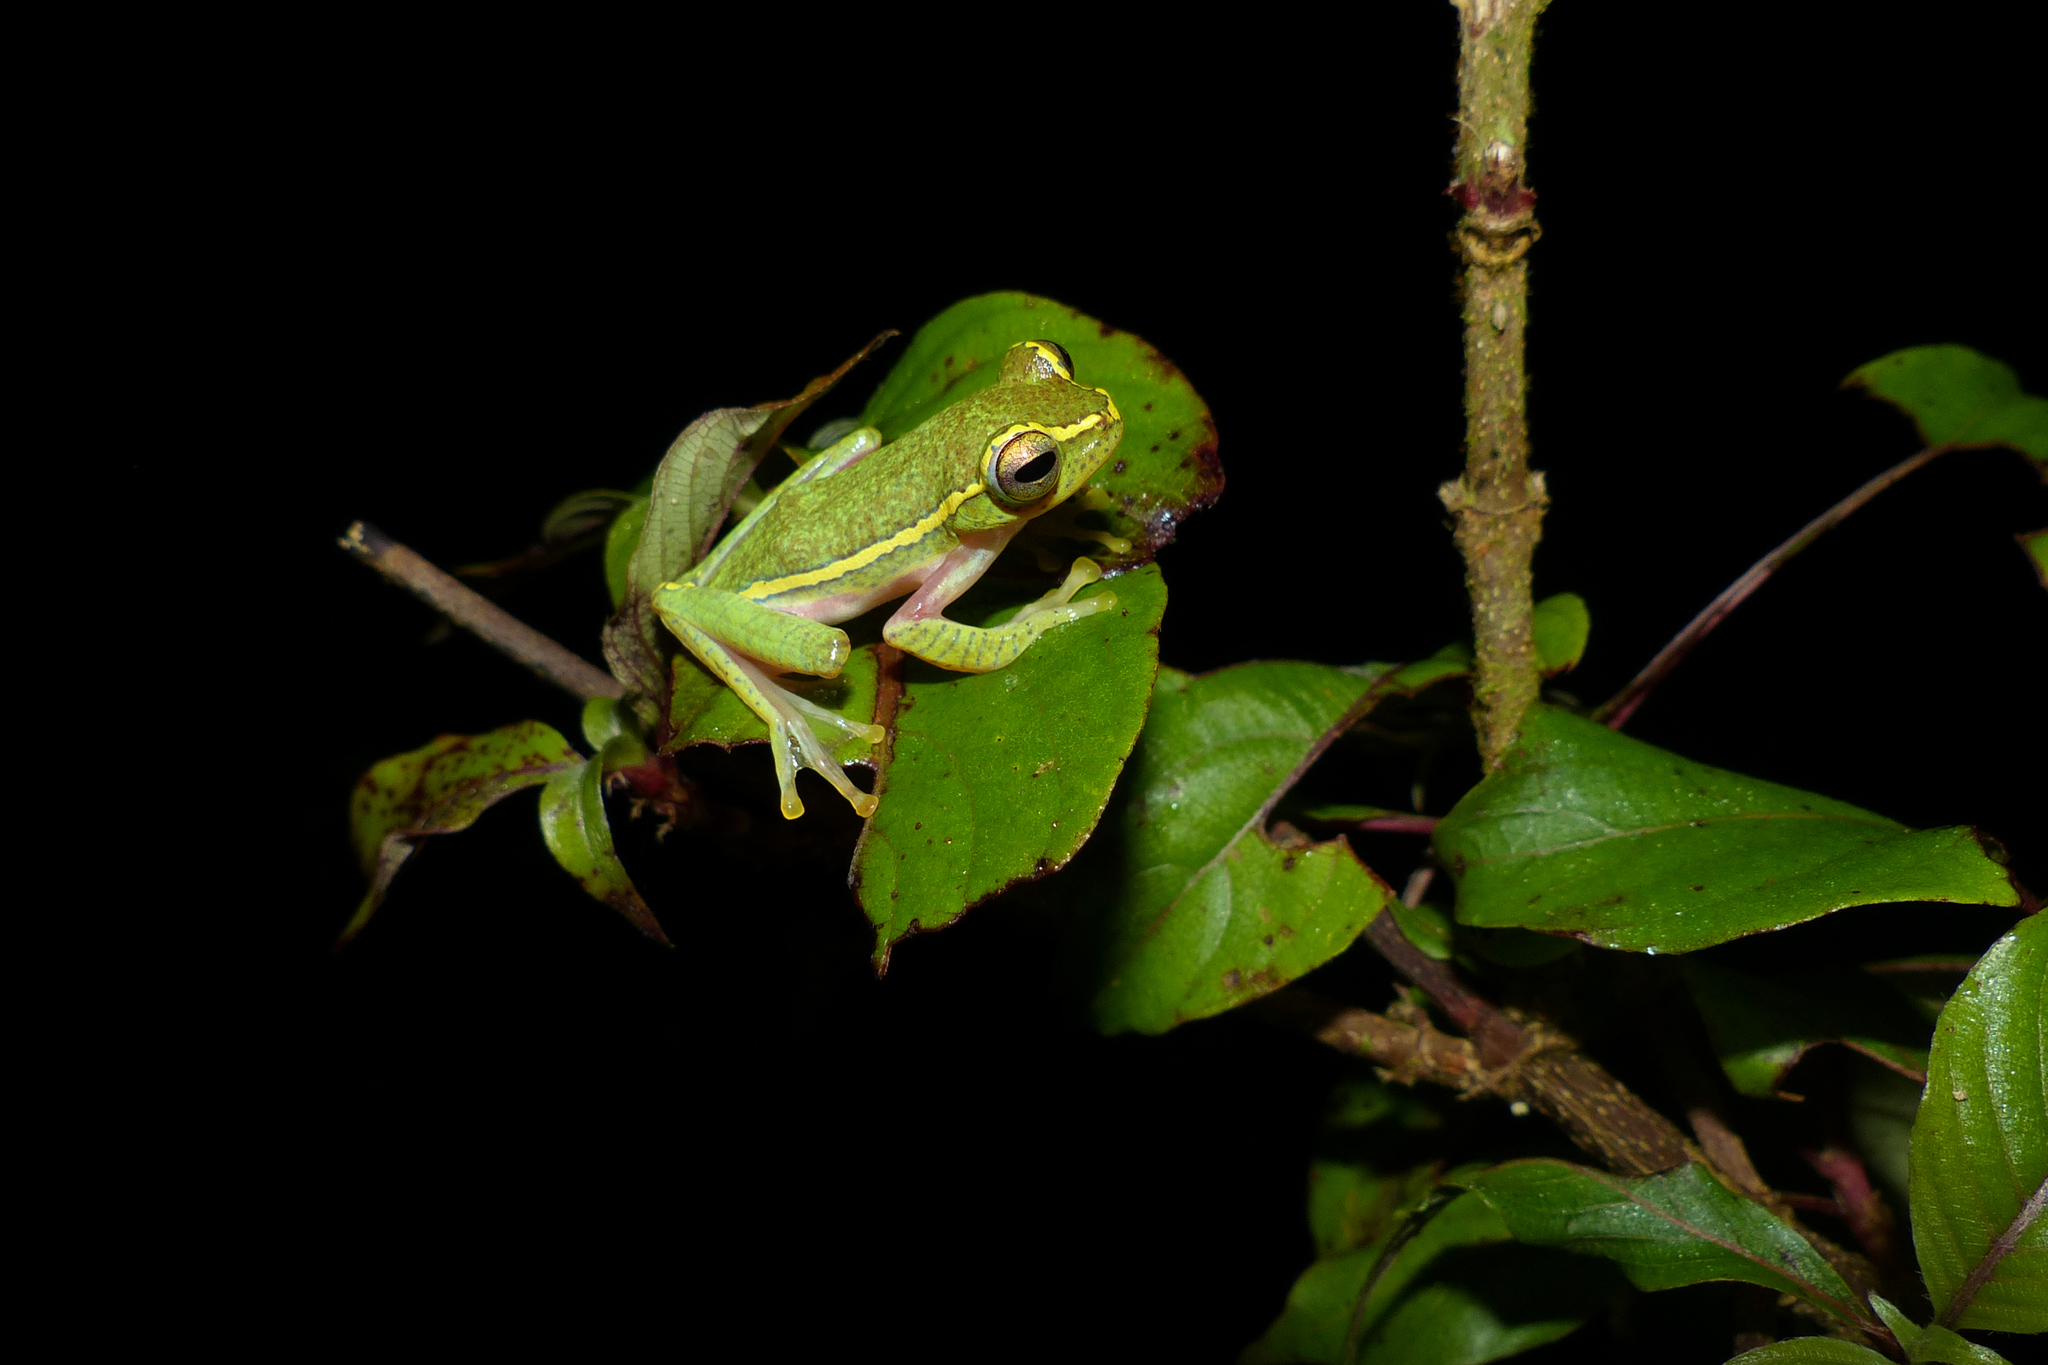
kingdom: Animalia
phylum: Chordata
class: Amphibia
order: Anura
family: Rhacophoridae
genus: Rhacophorus
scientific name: Rhacophorus lateralis
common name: Boulenger's tree frog
